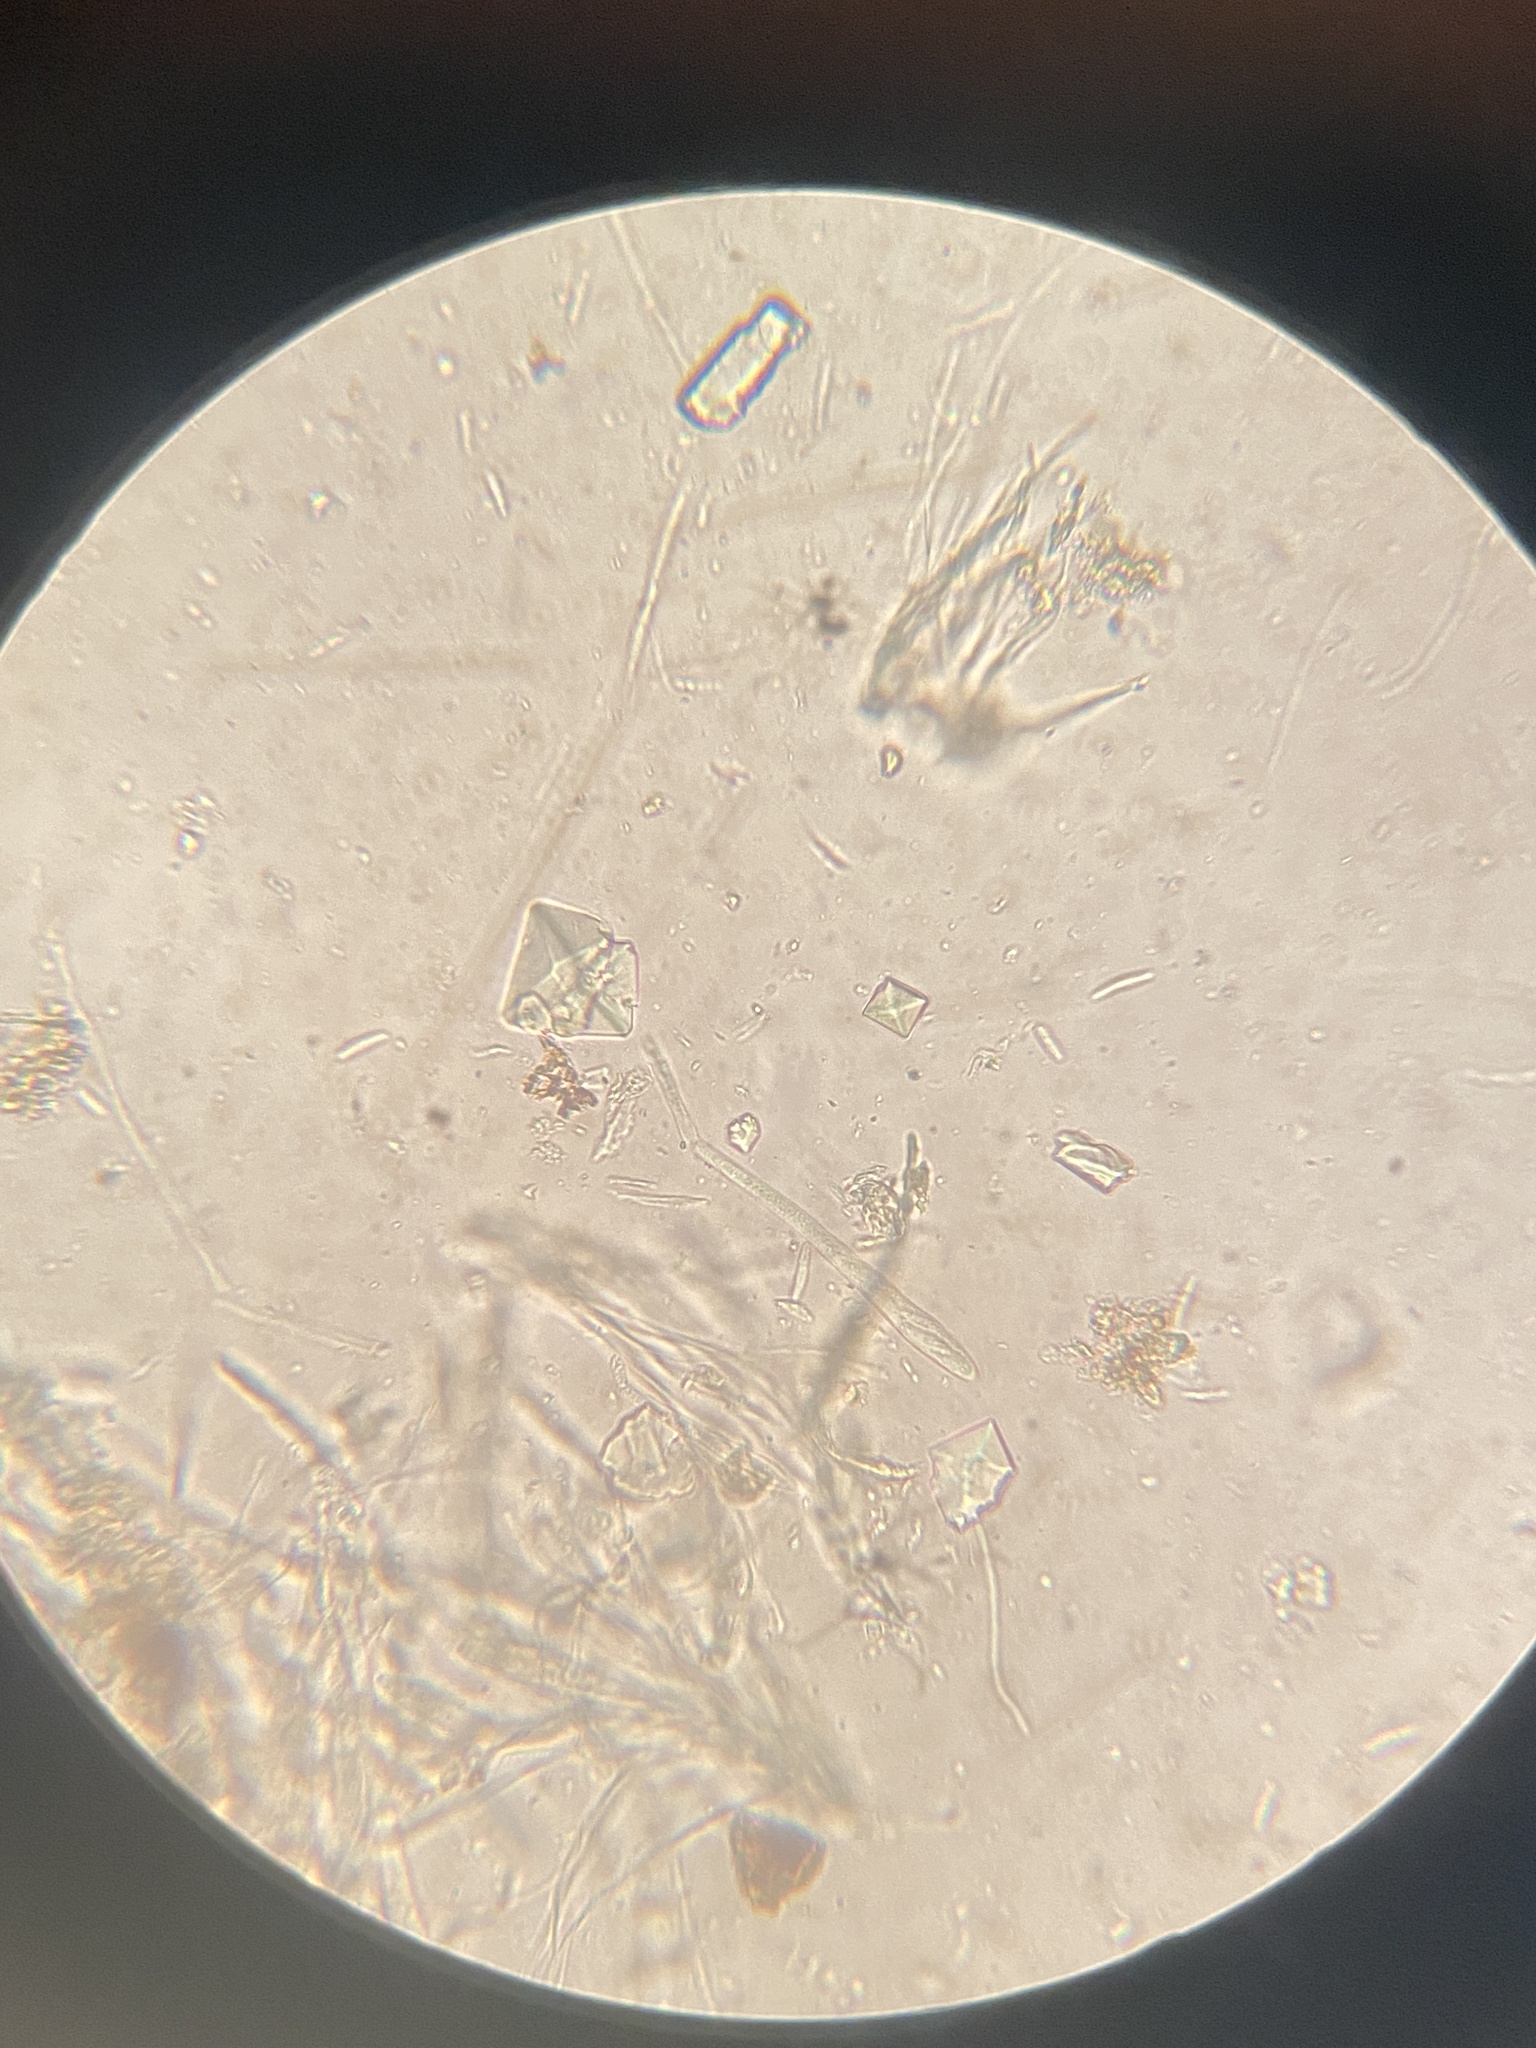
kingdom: Fungi
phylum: Ascomycota
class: Leotiomycetes
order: Helotiales
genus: Angelina
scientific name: Angelina rufescens
